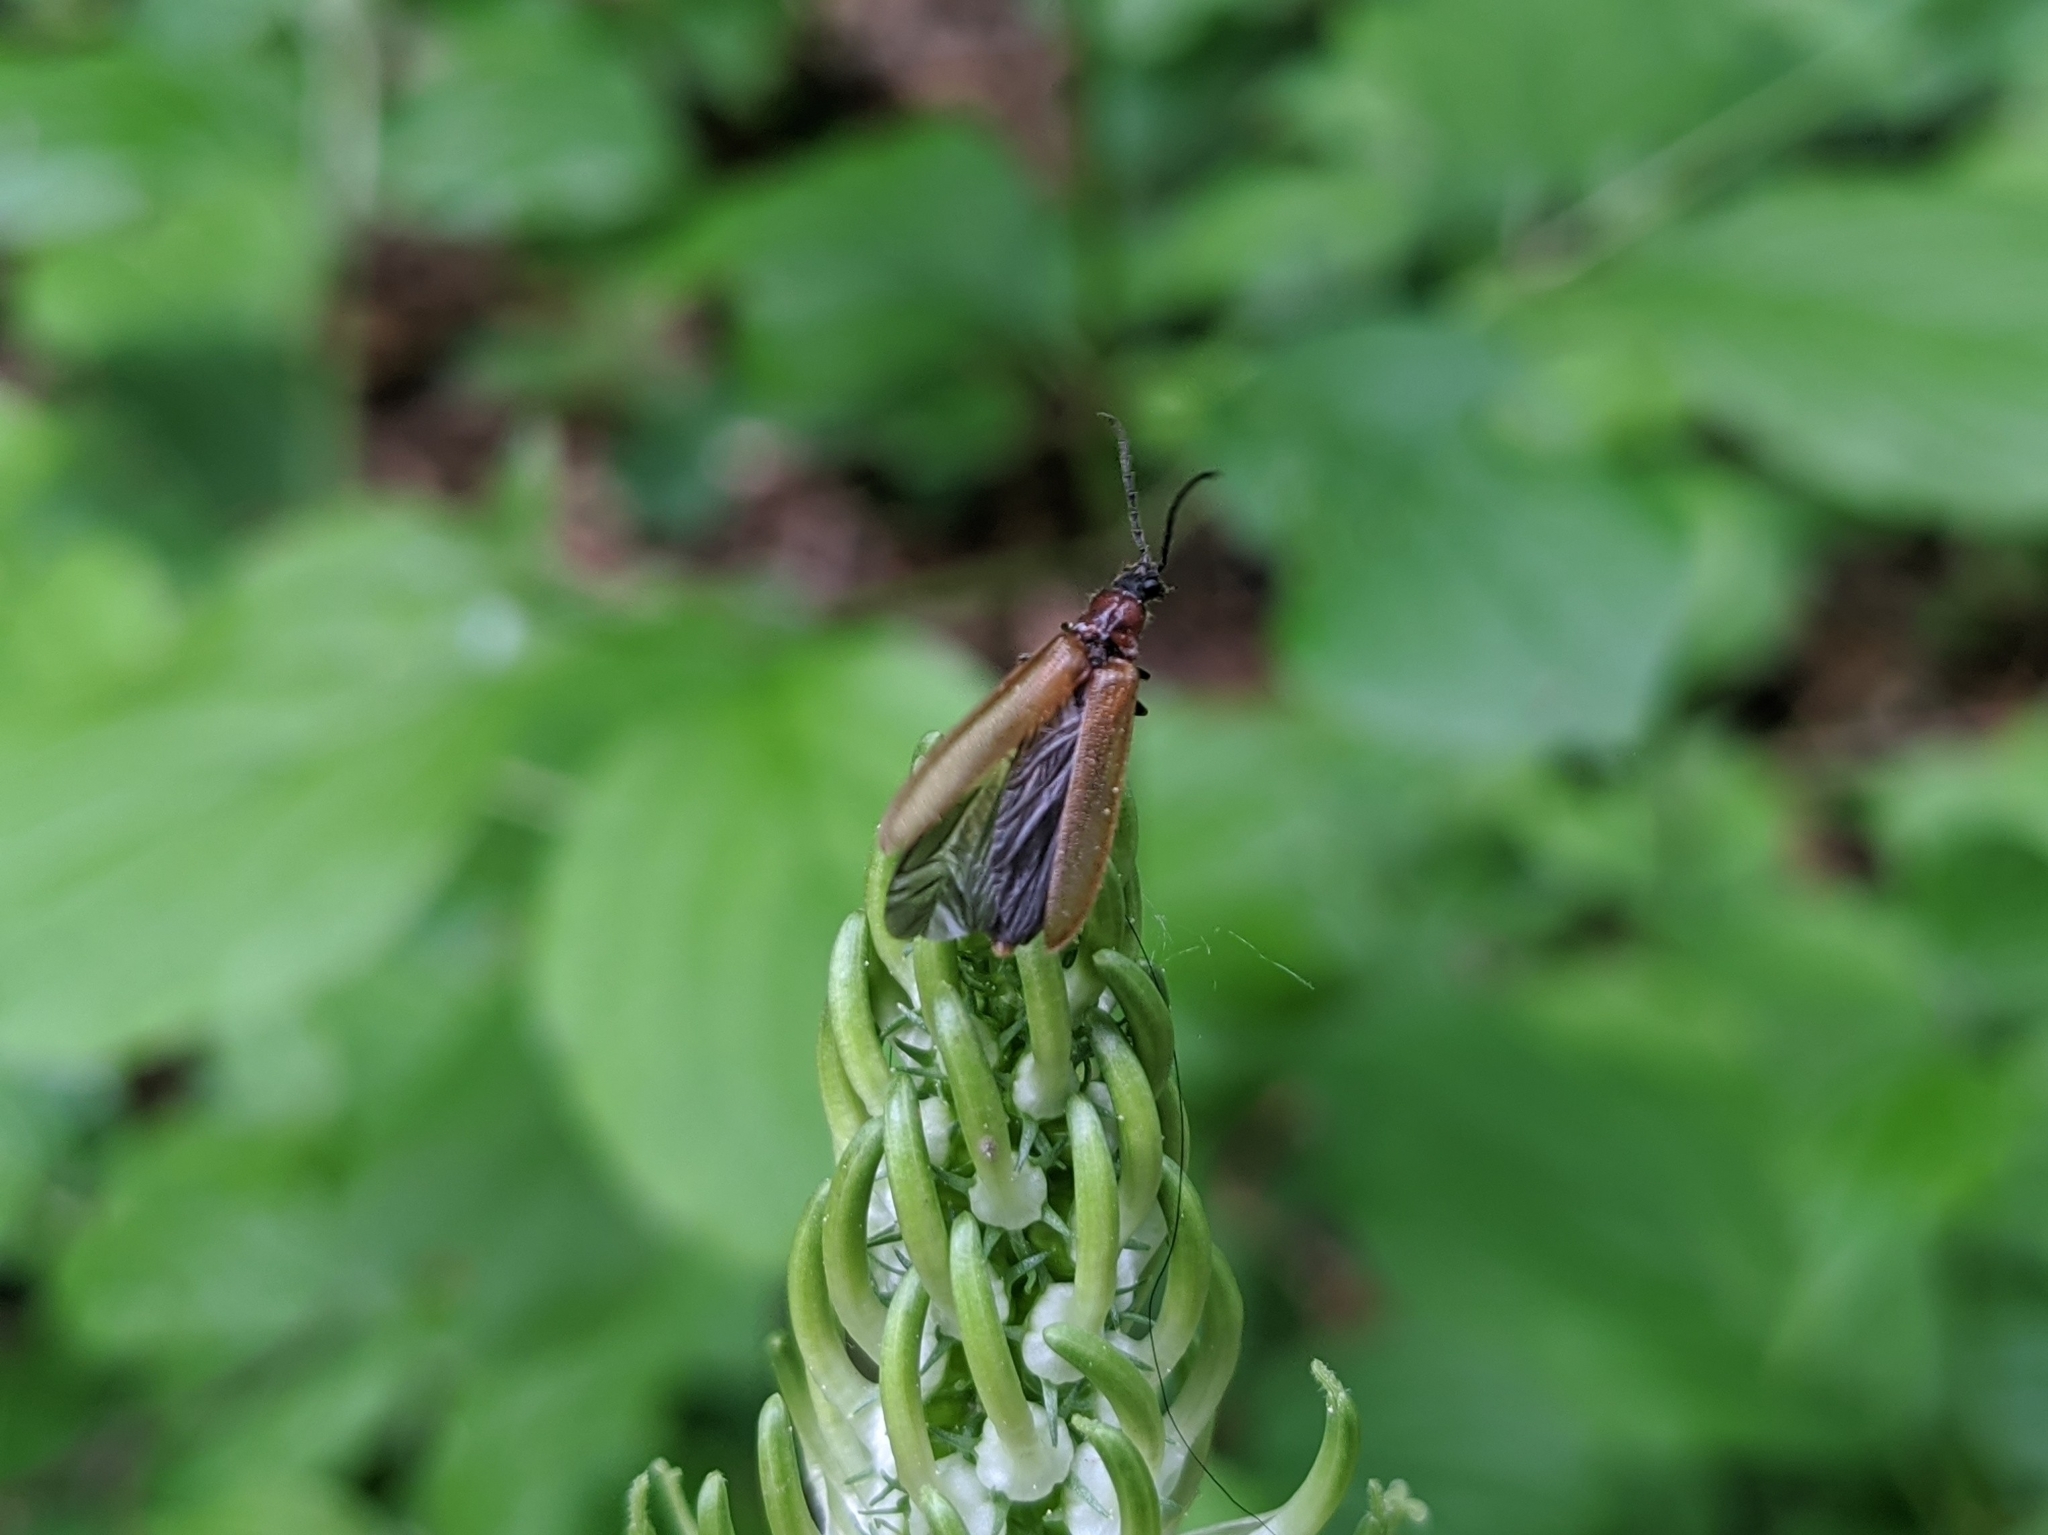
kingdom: Animalia
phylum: Arthropoda
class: Insecta
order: Coleoptera
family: Elateridae
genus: Denticollis
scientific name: Denticollis linearis
